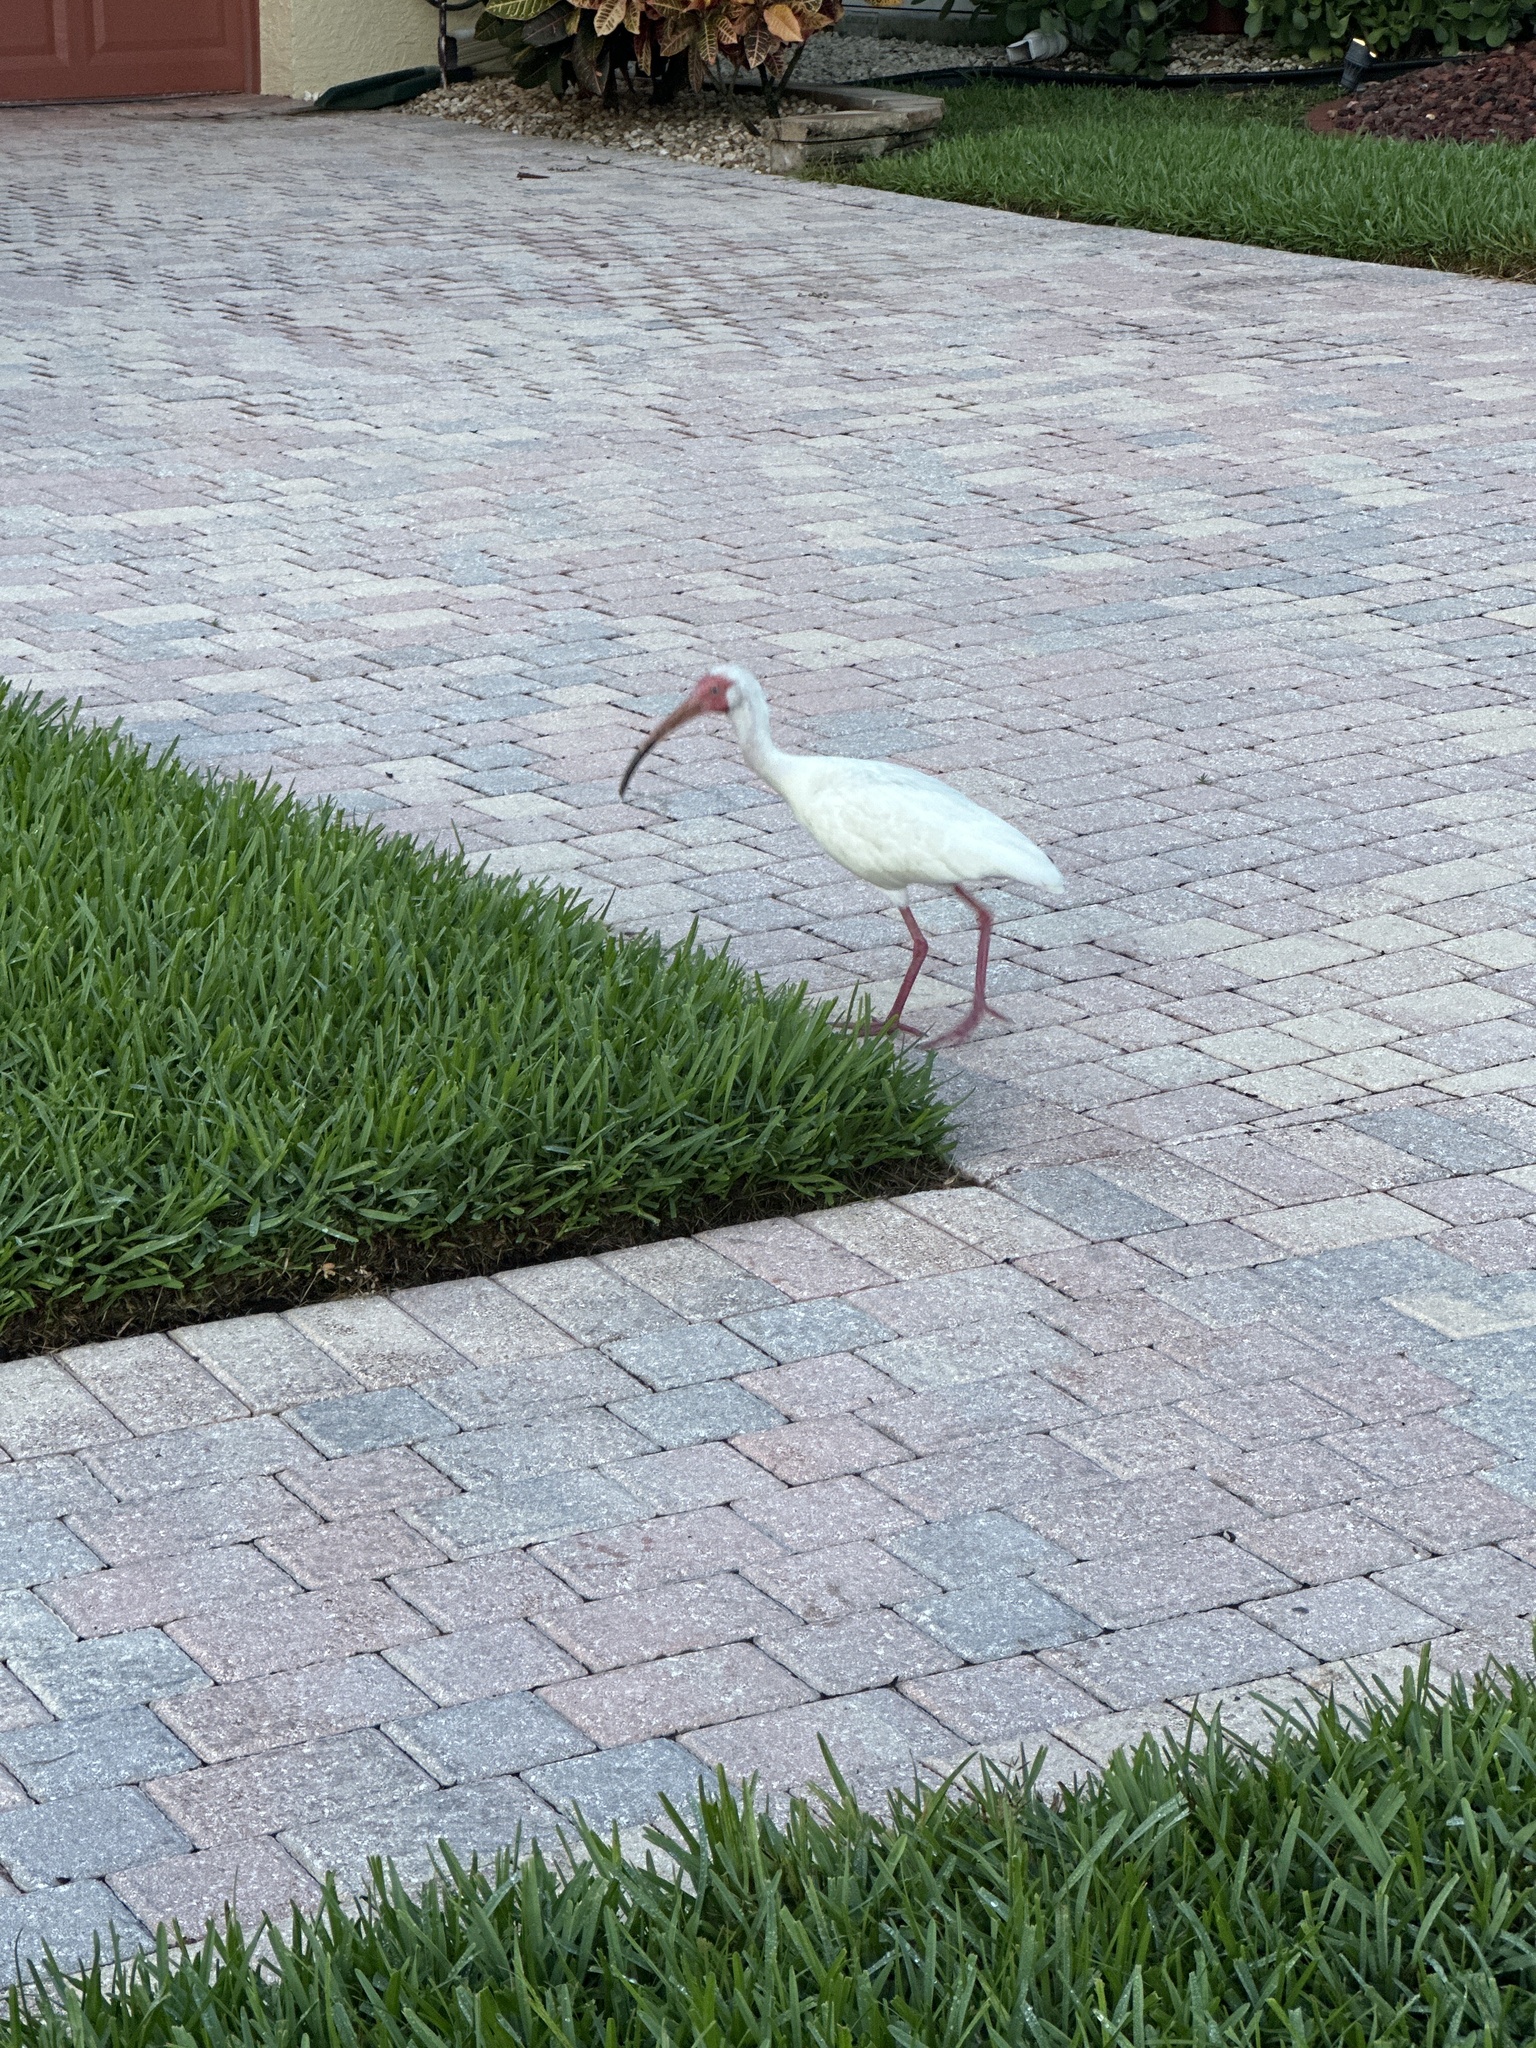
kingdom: Animalia
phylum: Chordata
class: Aves
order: Pelecaniformes
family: Threskiornithidae
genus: Eudocimus
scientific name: Eudocimus albus
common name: White ibis
